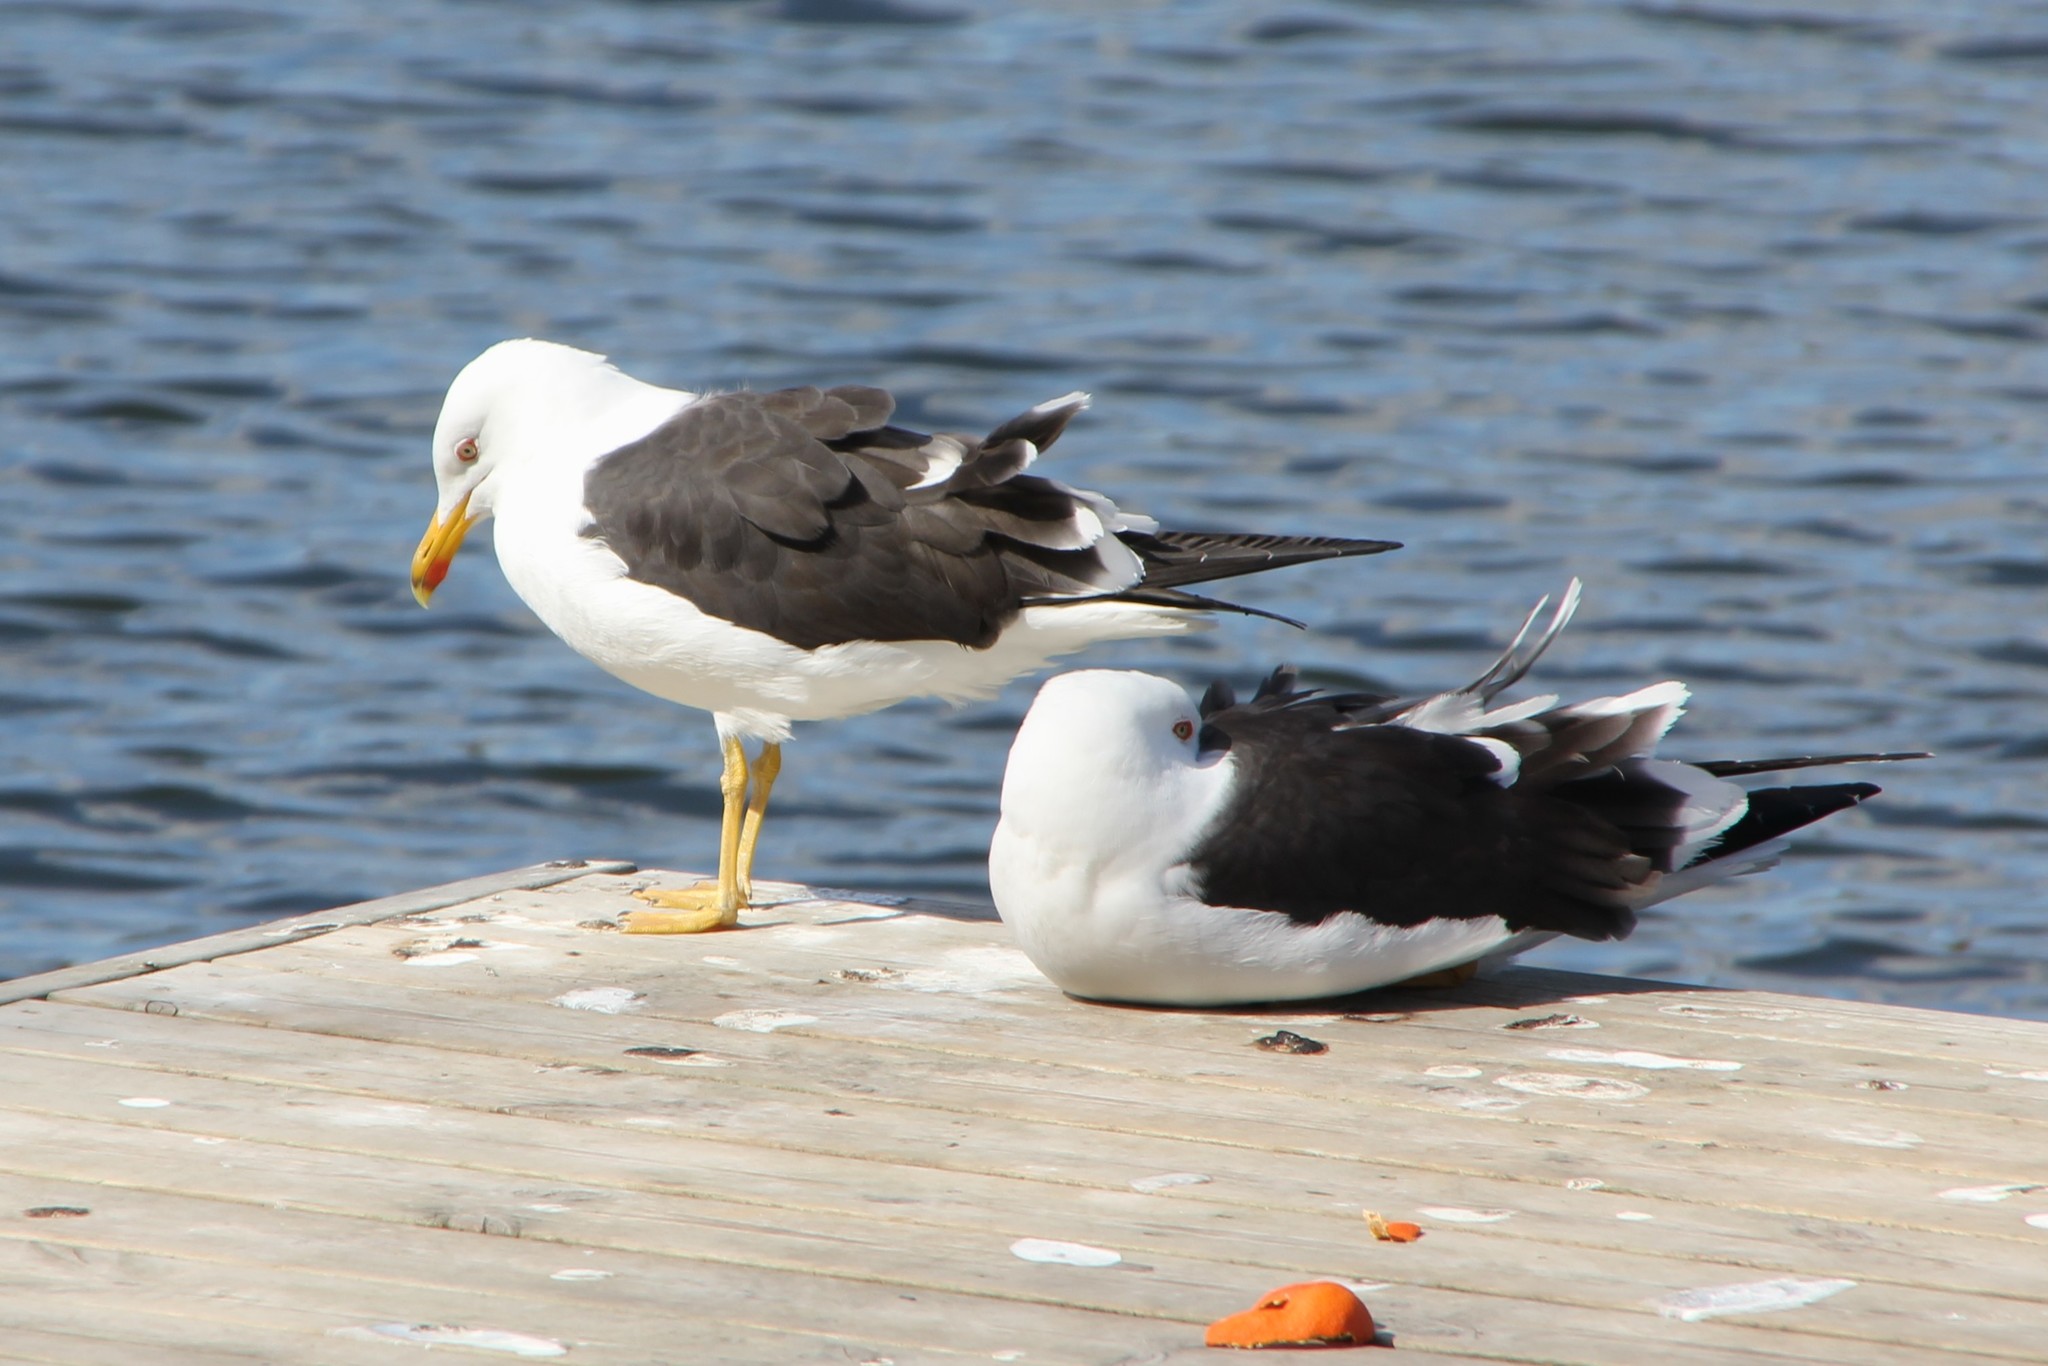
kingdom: Animalia
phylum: Chordata
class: Aves
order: Charadriiformes
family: Laridae
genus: Larus
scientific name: Larus fuscus
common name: Lesser black-backed gull
